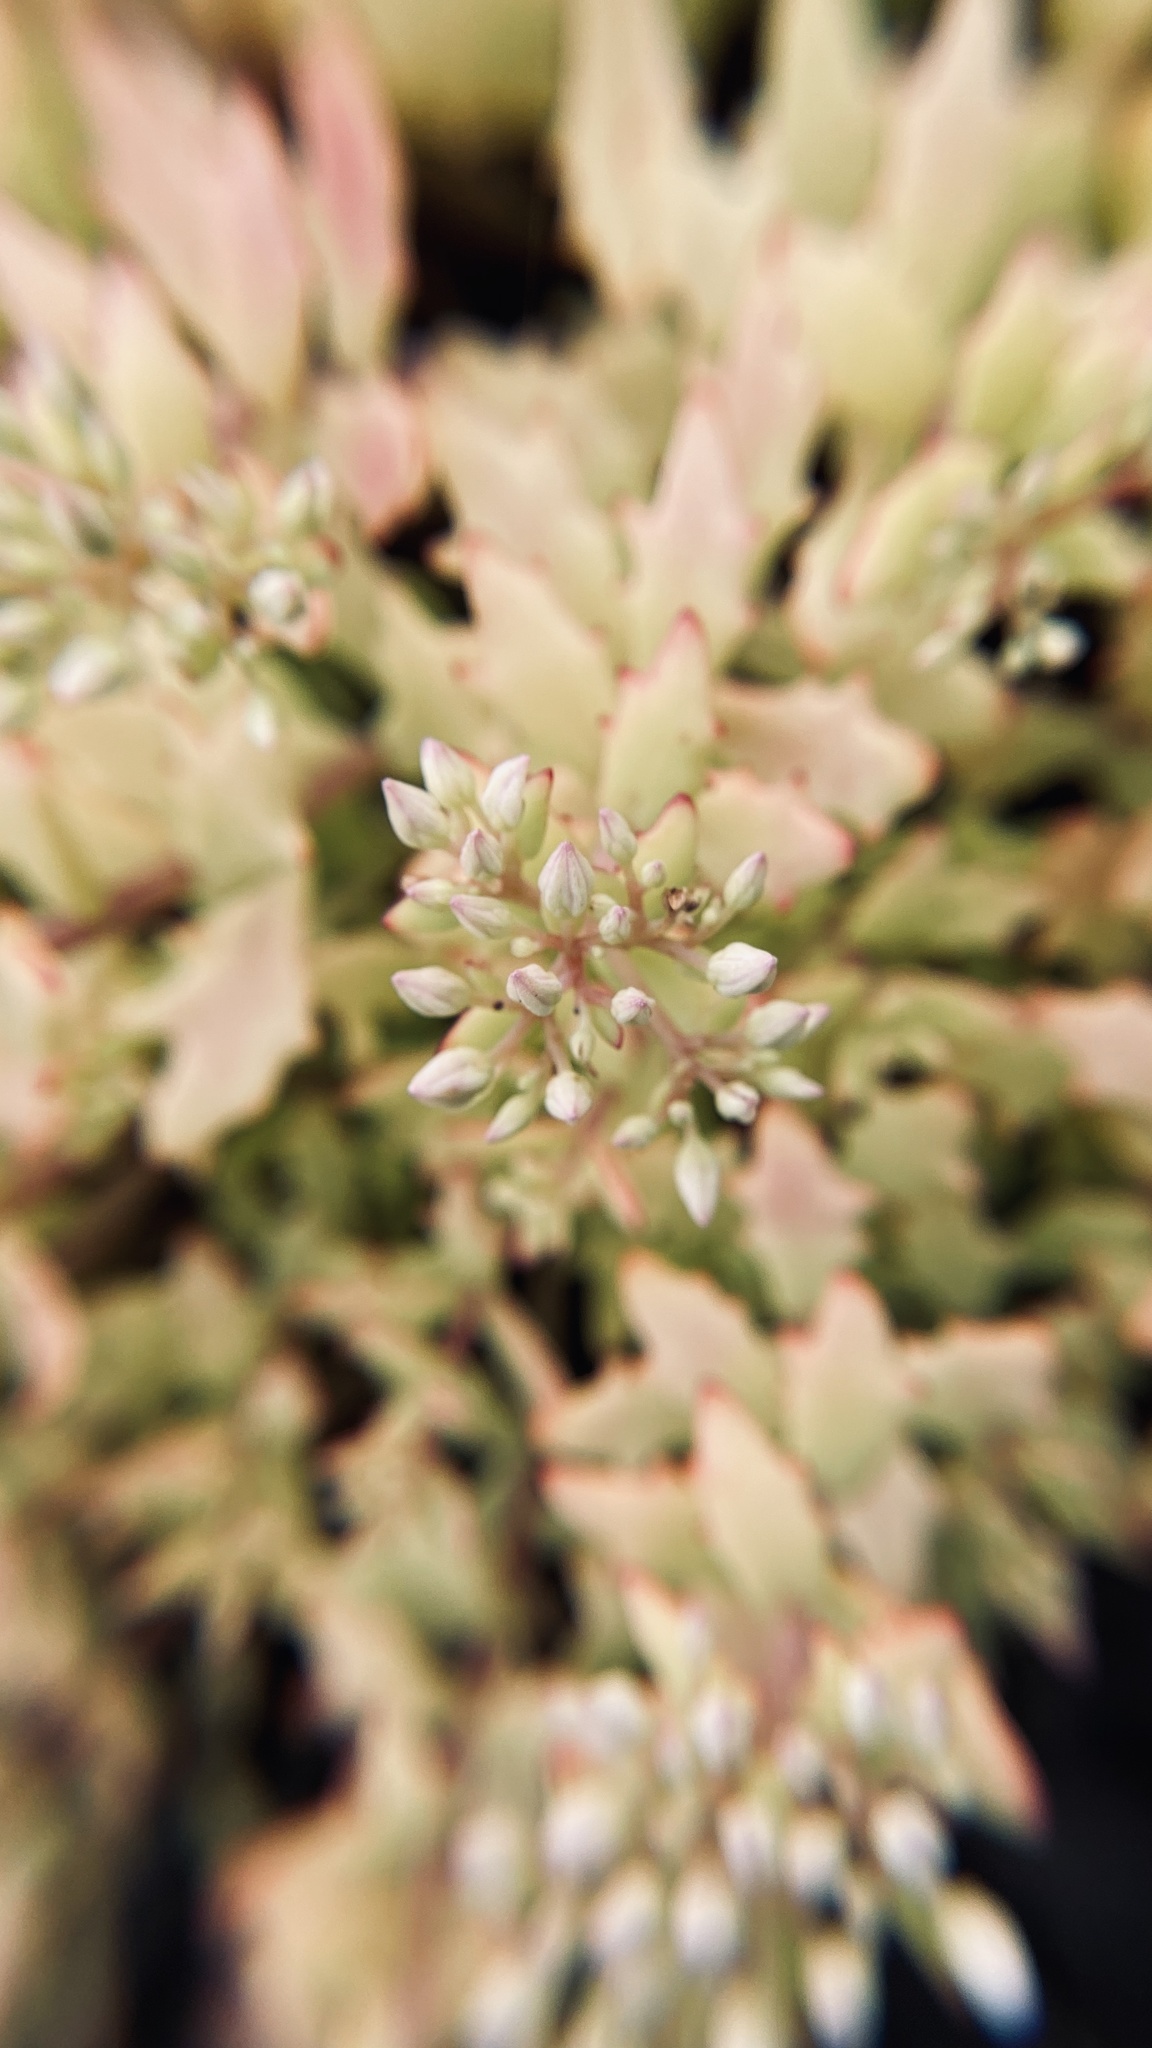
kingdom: Plantae
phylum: Tracheophyta
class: Magnoliopsida
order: Saxifragales
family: Crassulaceae
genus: Hylotelephium
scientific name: Hylotelephium tatarinowii
